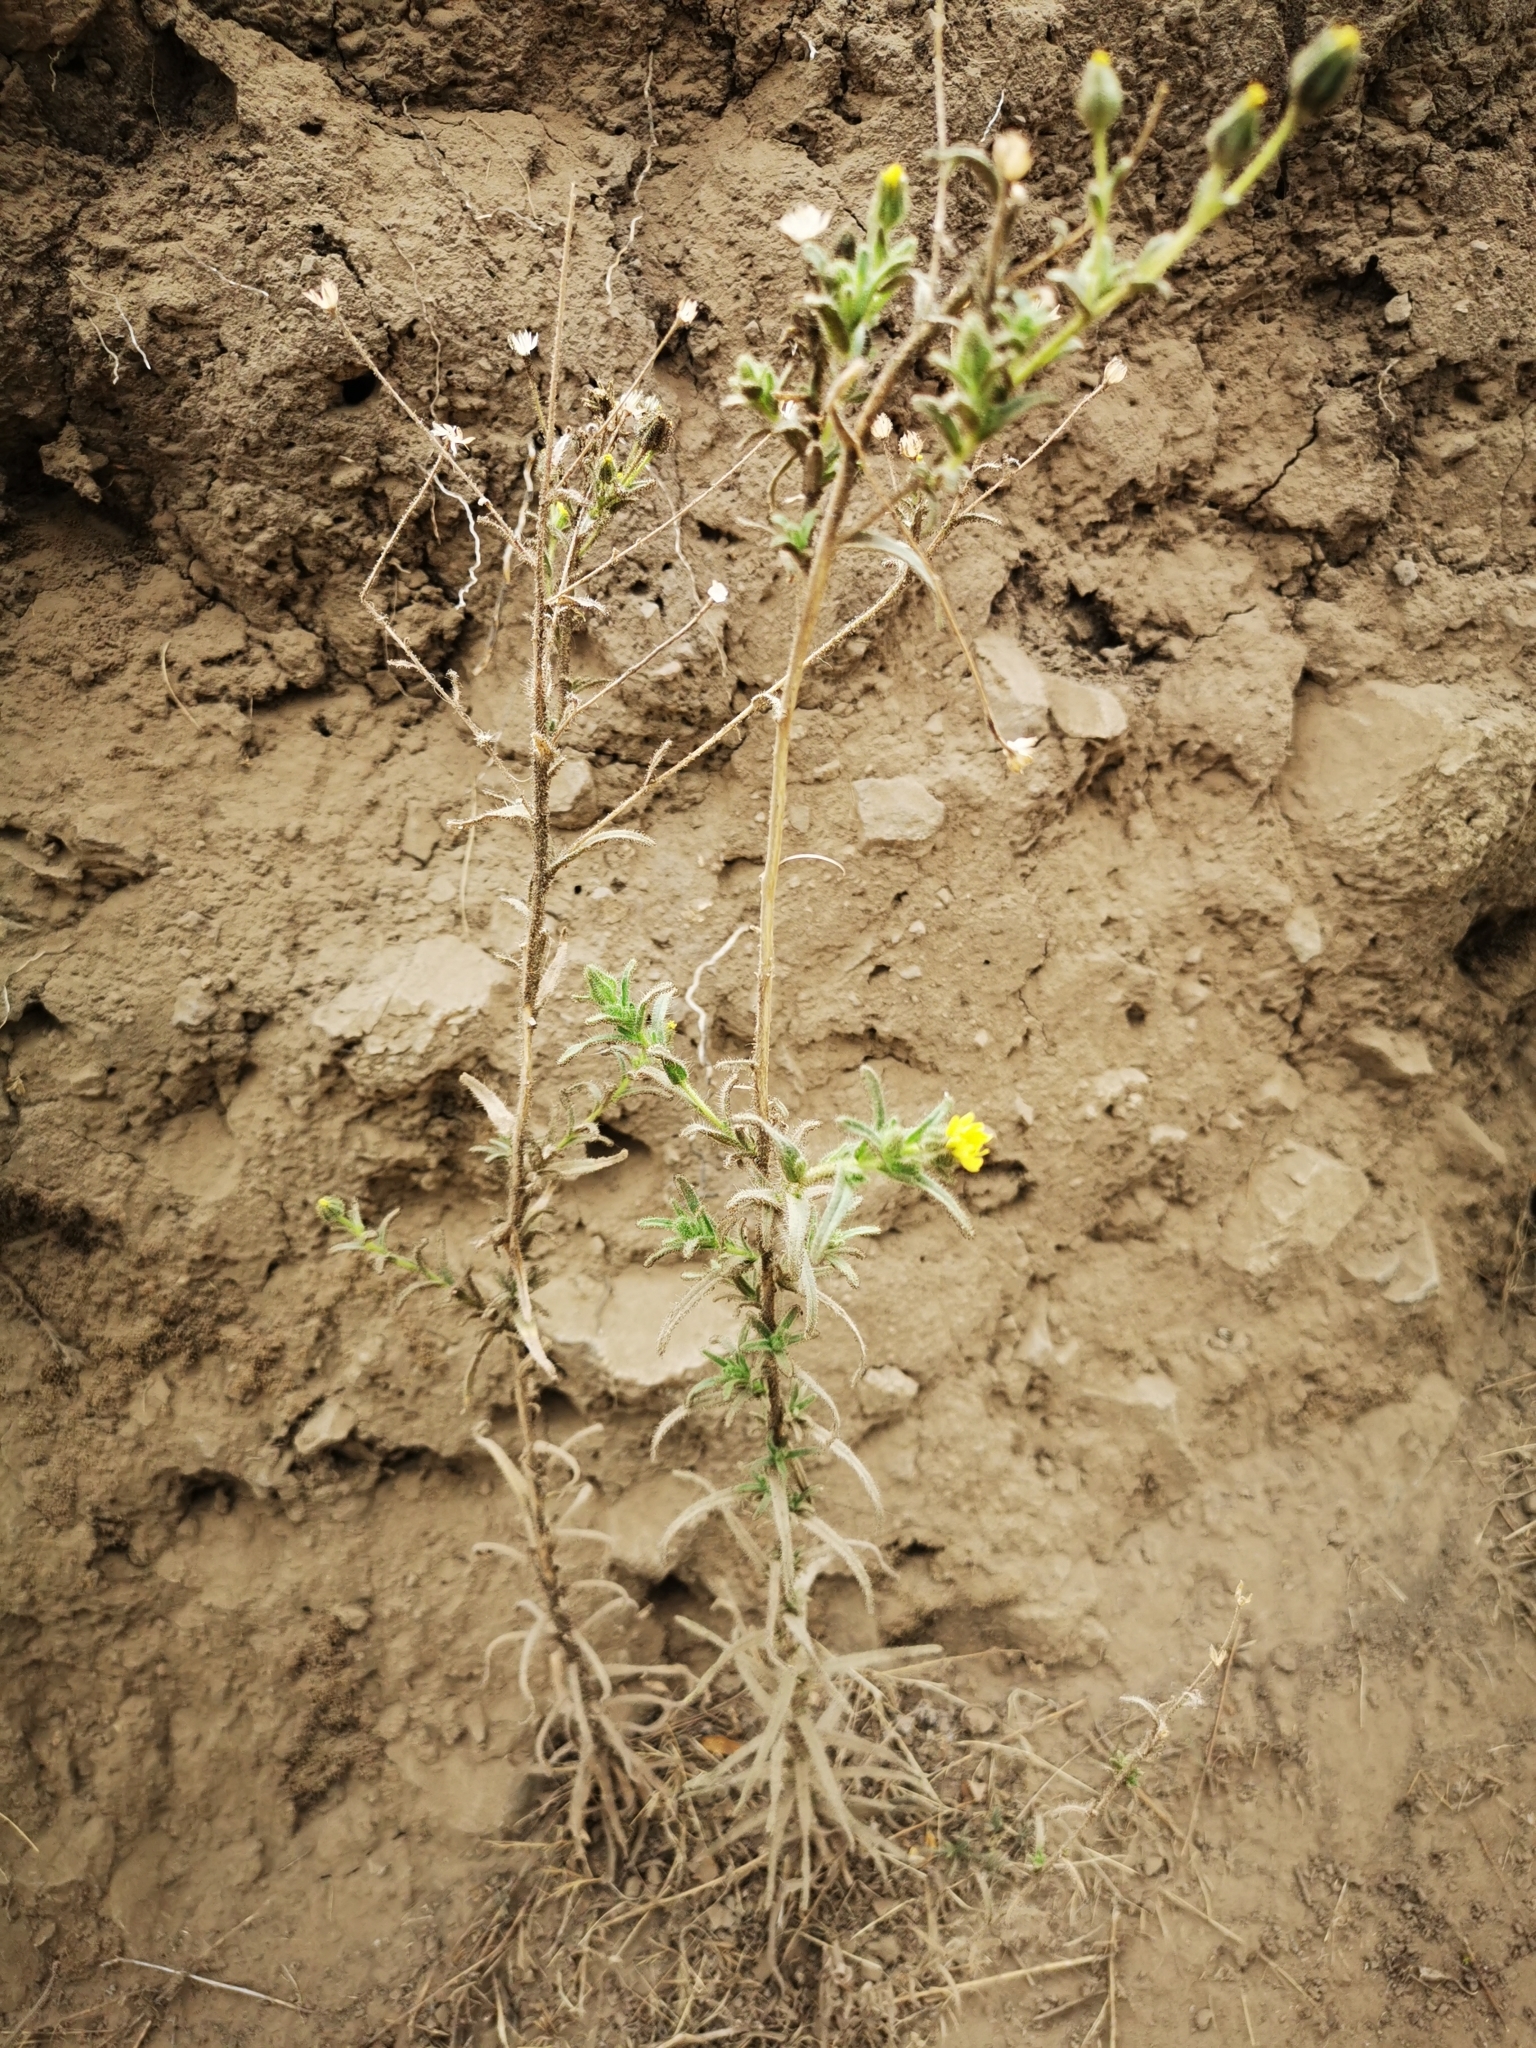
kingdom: Plantae
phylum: Tracheophyta
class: Magnoliopsida
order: Asterales
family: Asteraceae
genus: Madia
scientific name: Madia sativa
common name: Coast tarweed
